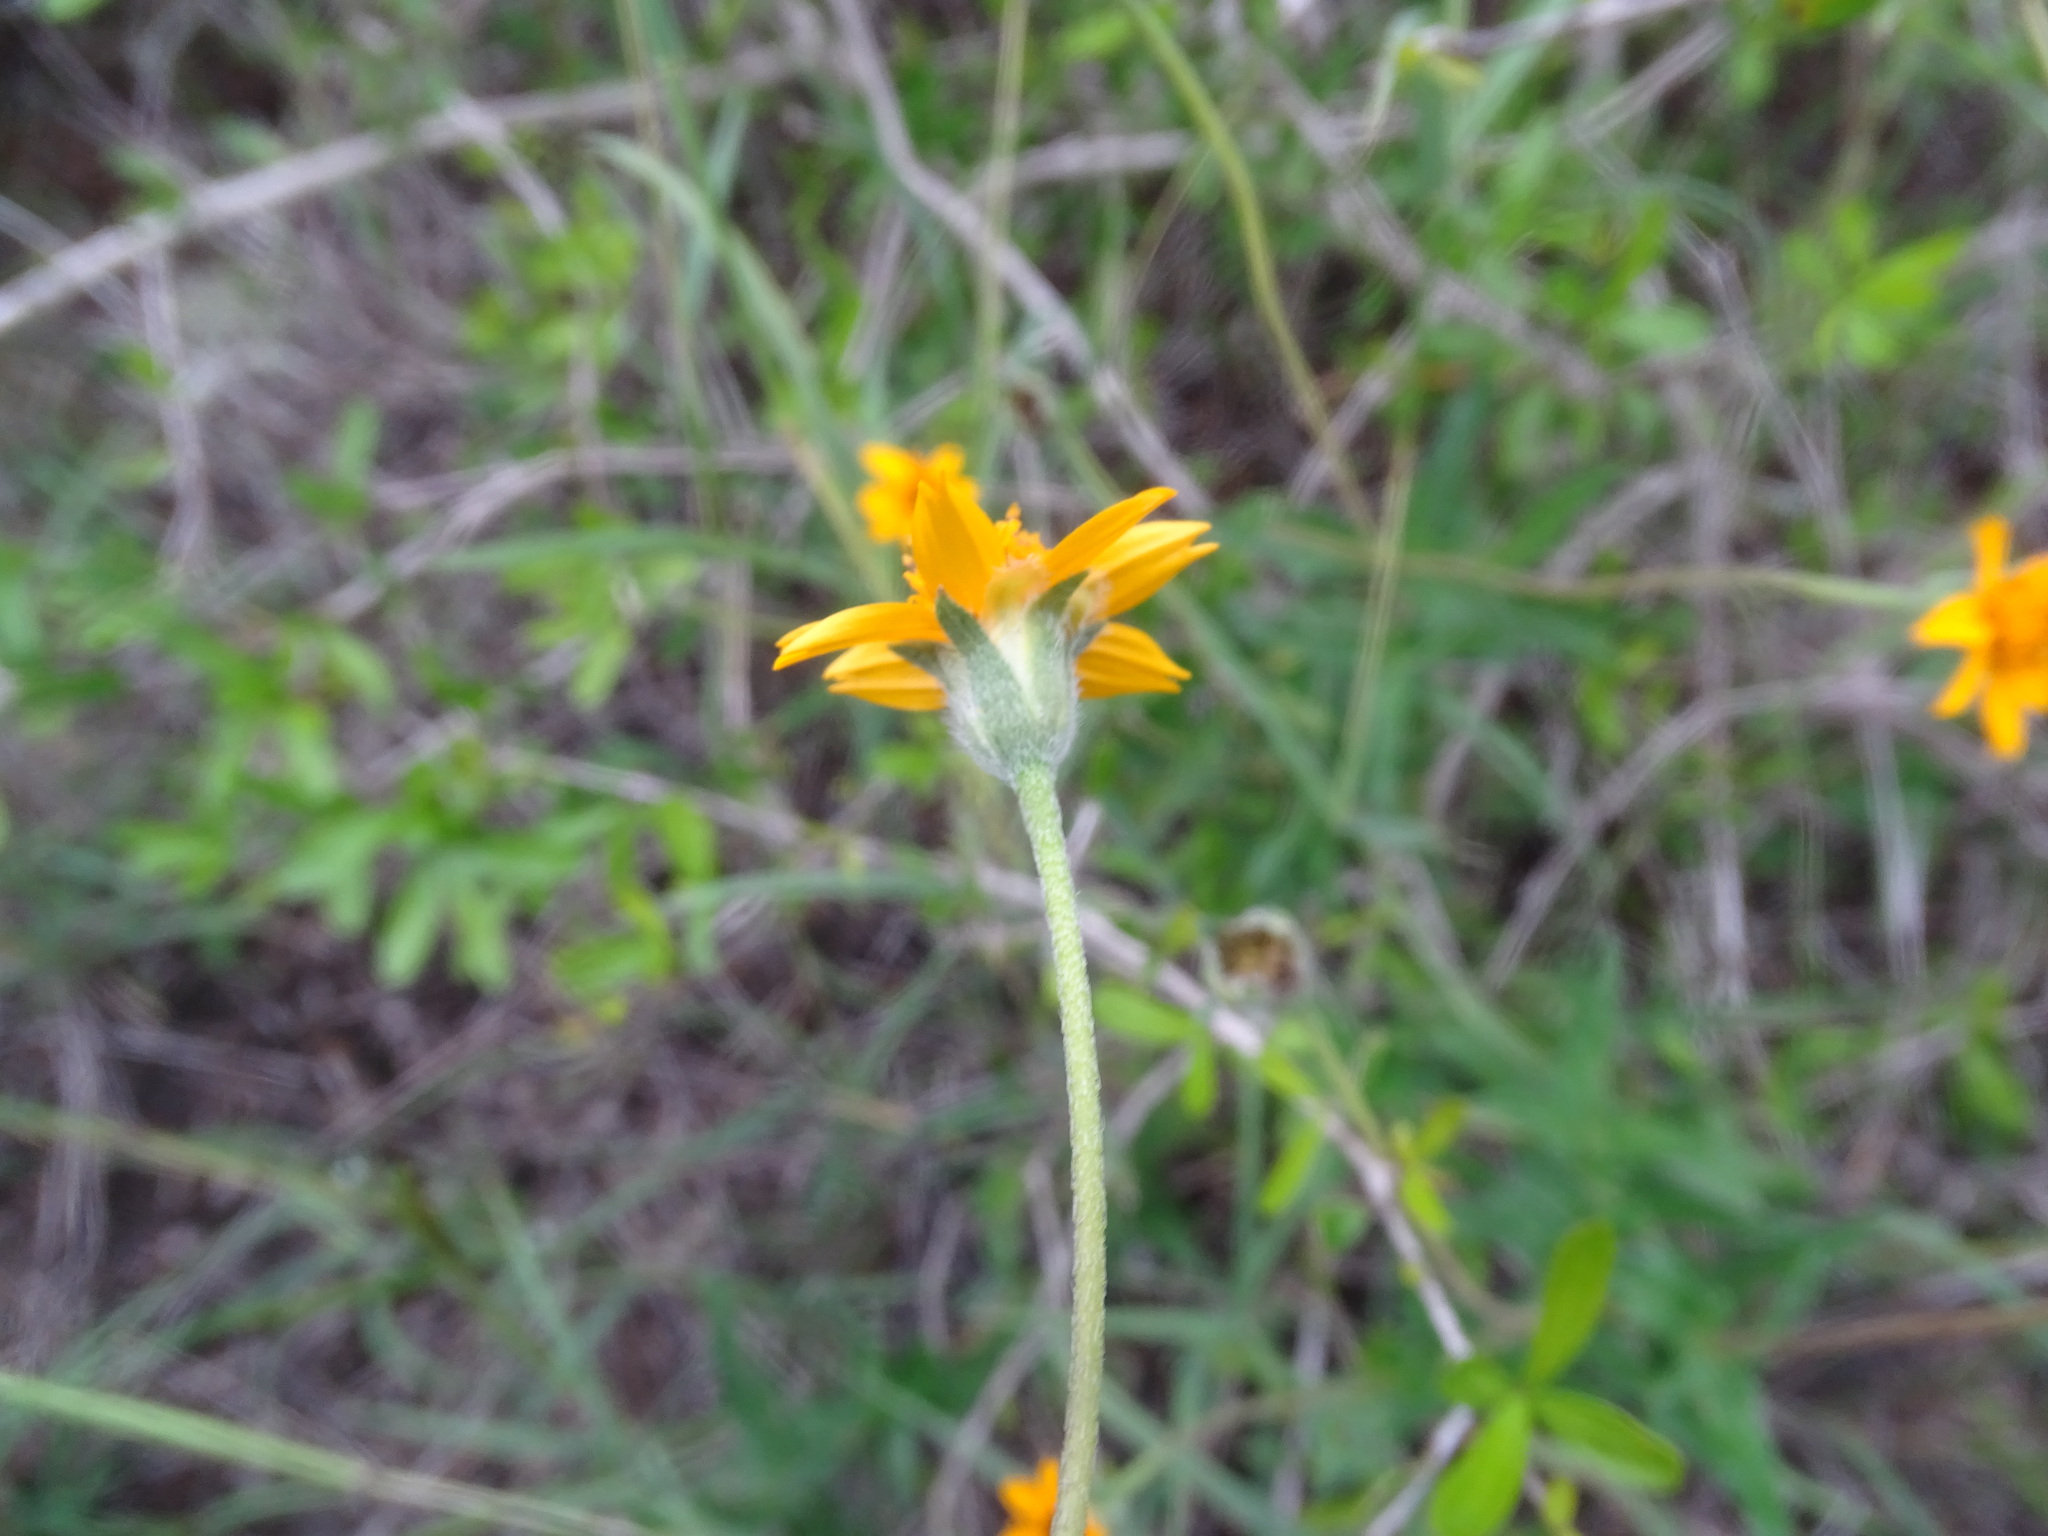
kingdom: Plantae
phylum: Tracheophyta
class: Magnoliopsida
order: Asterales
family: Asteraceae
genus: Wedelia
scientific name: Wedelia acapulcensis
